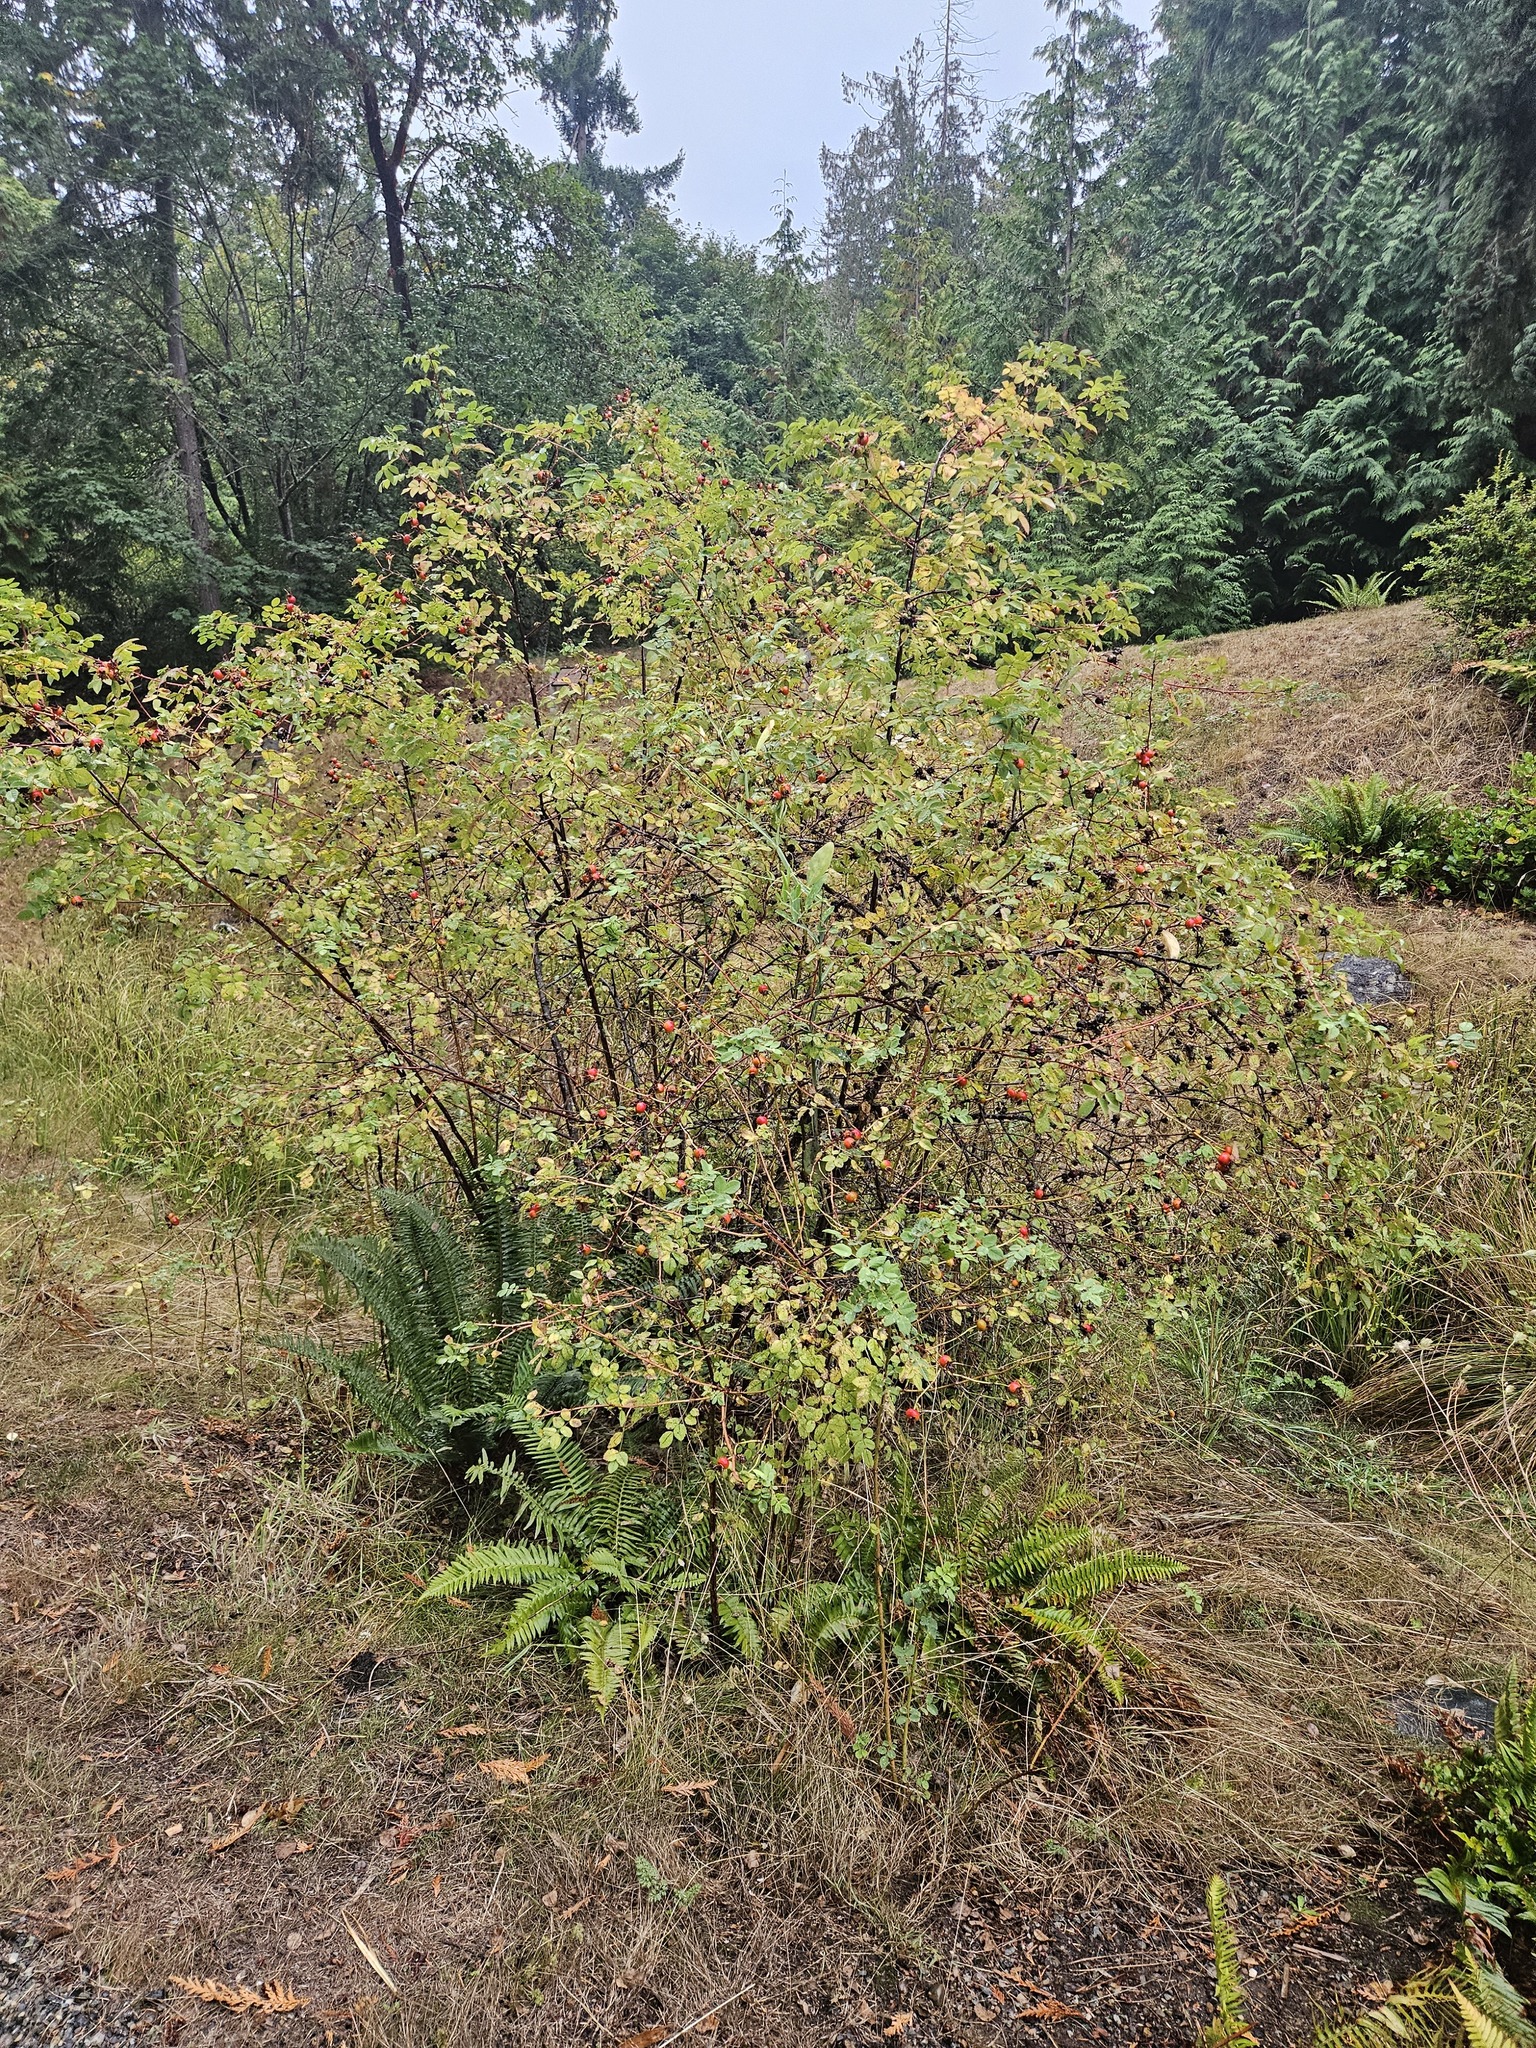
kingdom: Plantae
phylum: Tracheophyta
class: Magnoliopsida
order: Rosales
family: Rosaceae
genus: Rosa
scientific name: Rosa nutkana
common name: Nootka rose
